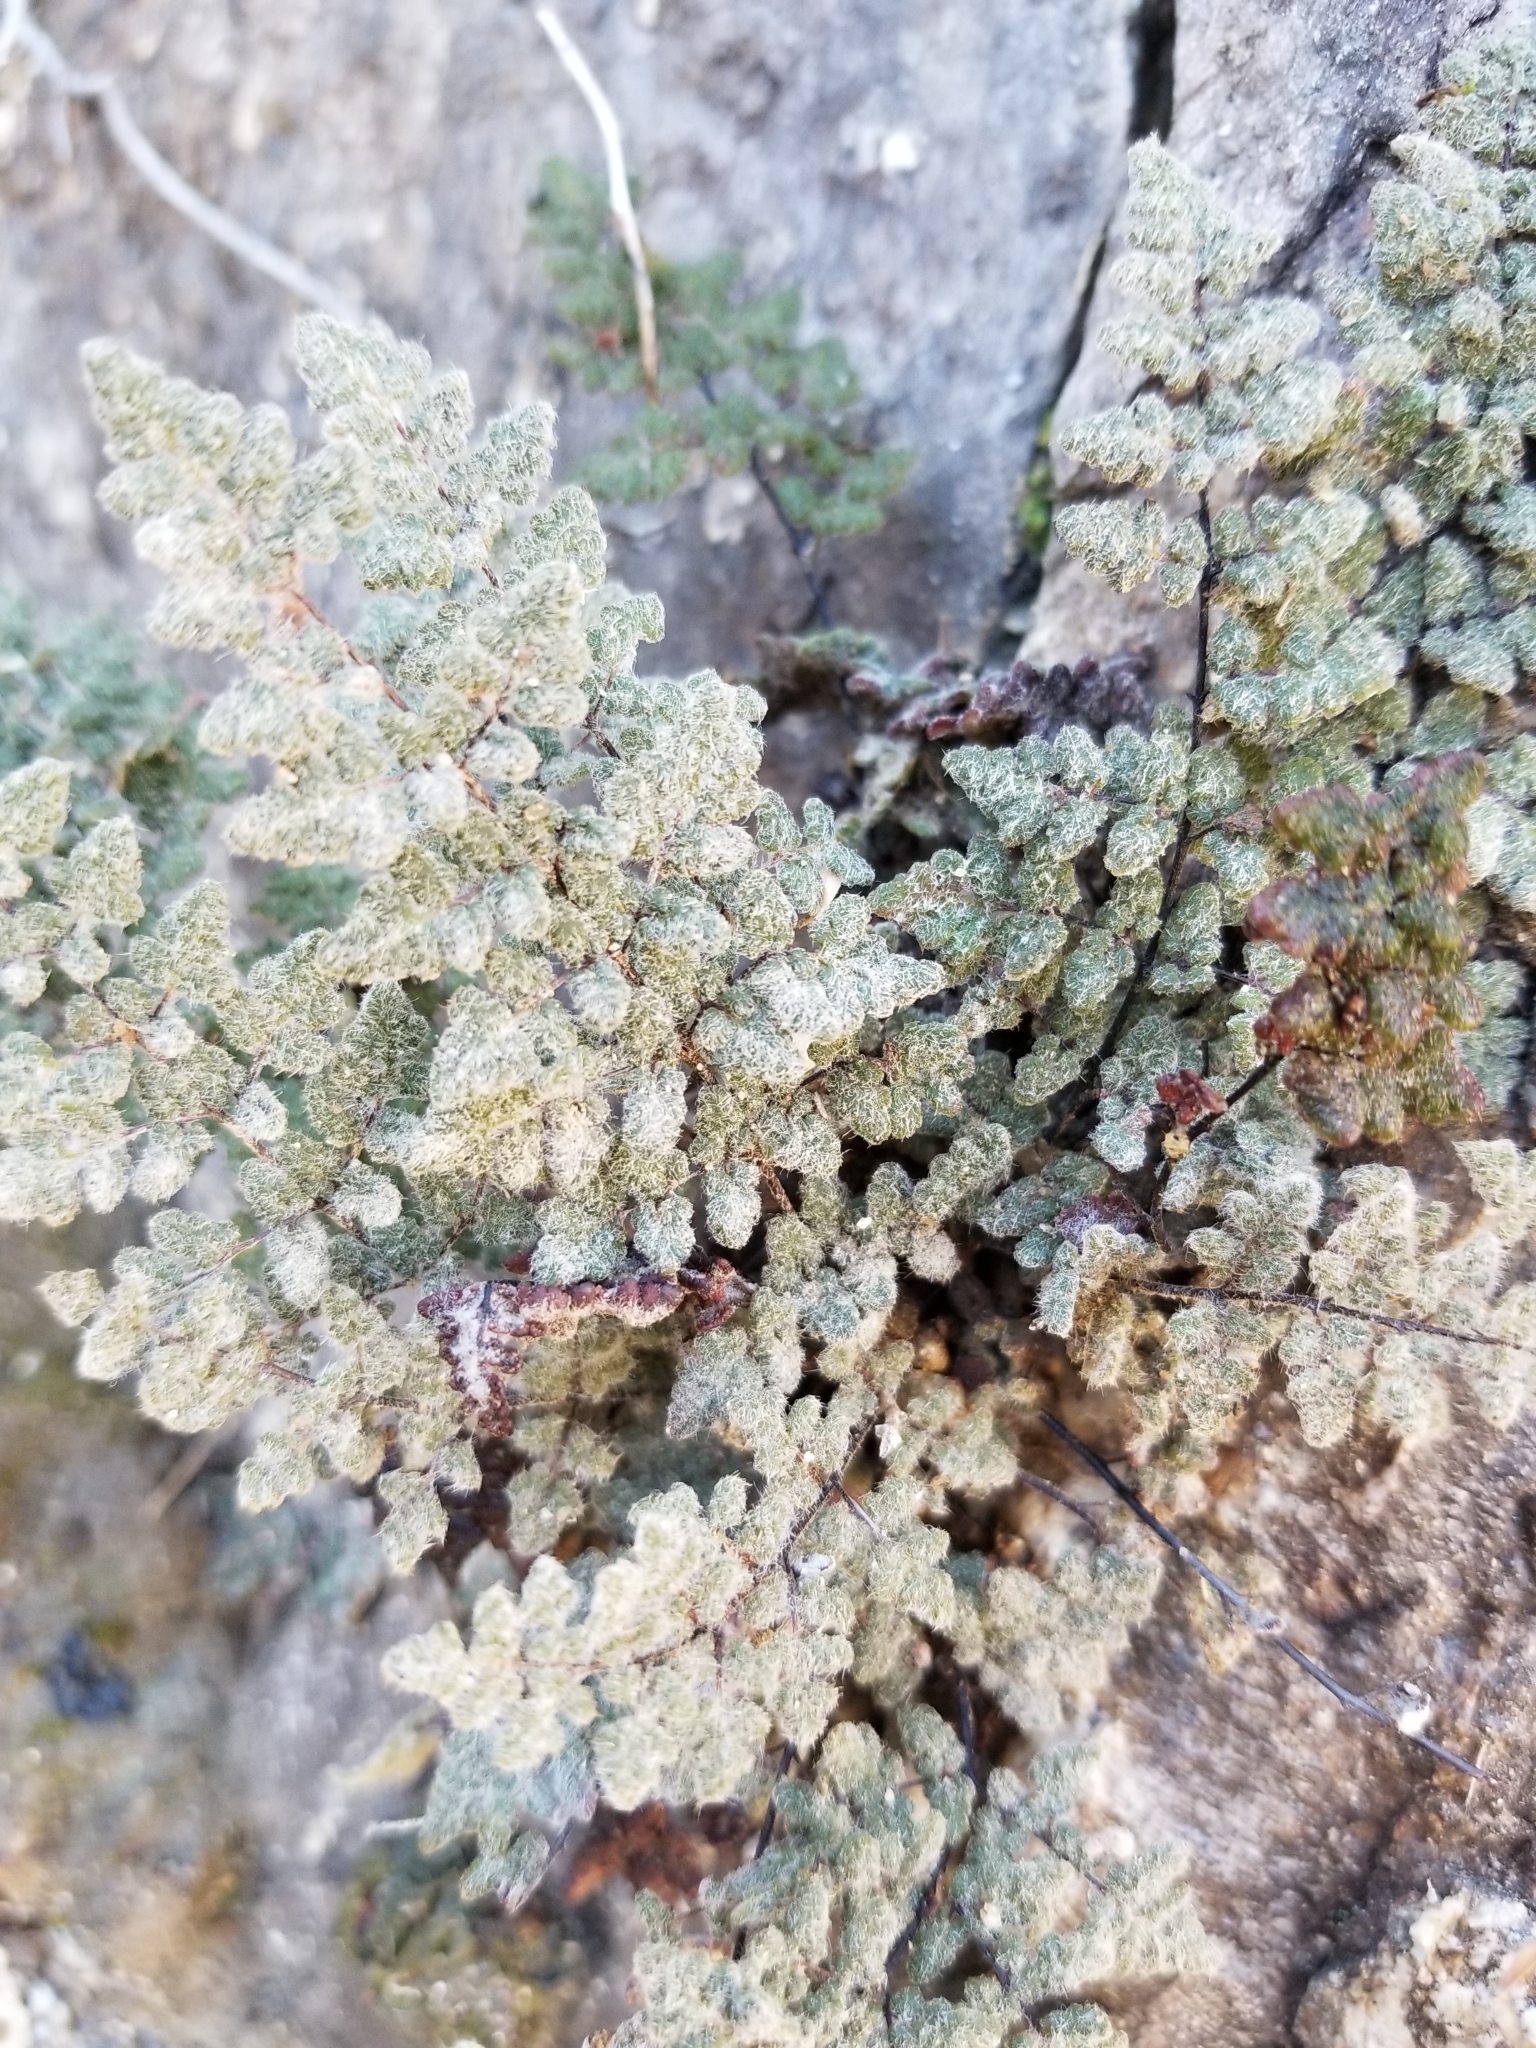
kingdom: Plantae
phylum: Tracheophyta
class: Polypodiopsida
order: Polypodiales
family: Pteridaceae
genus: Myriopteris
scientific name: Myriopteris parryi
